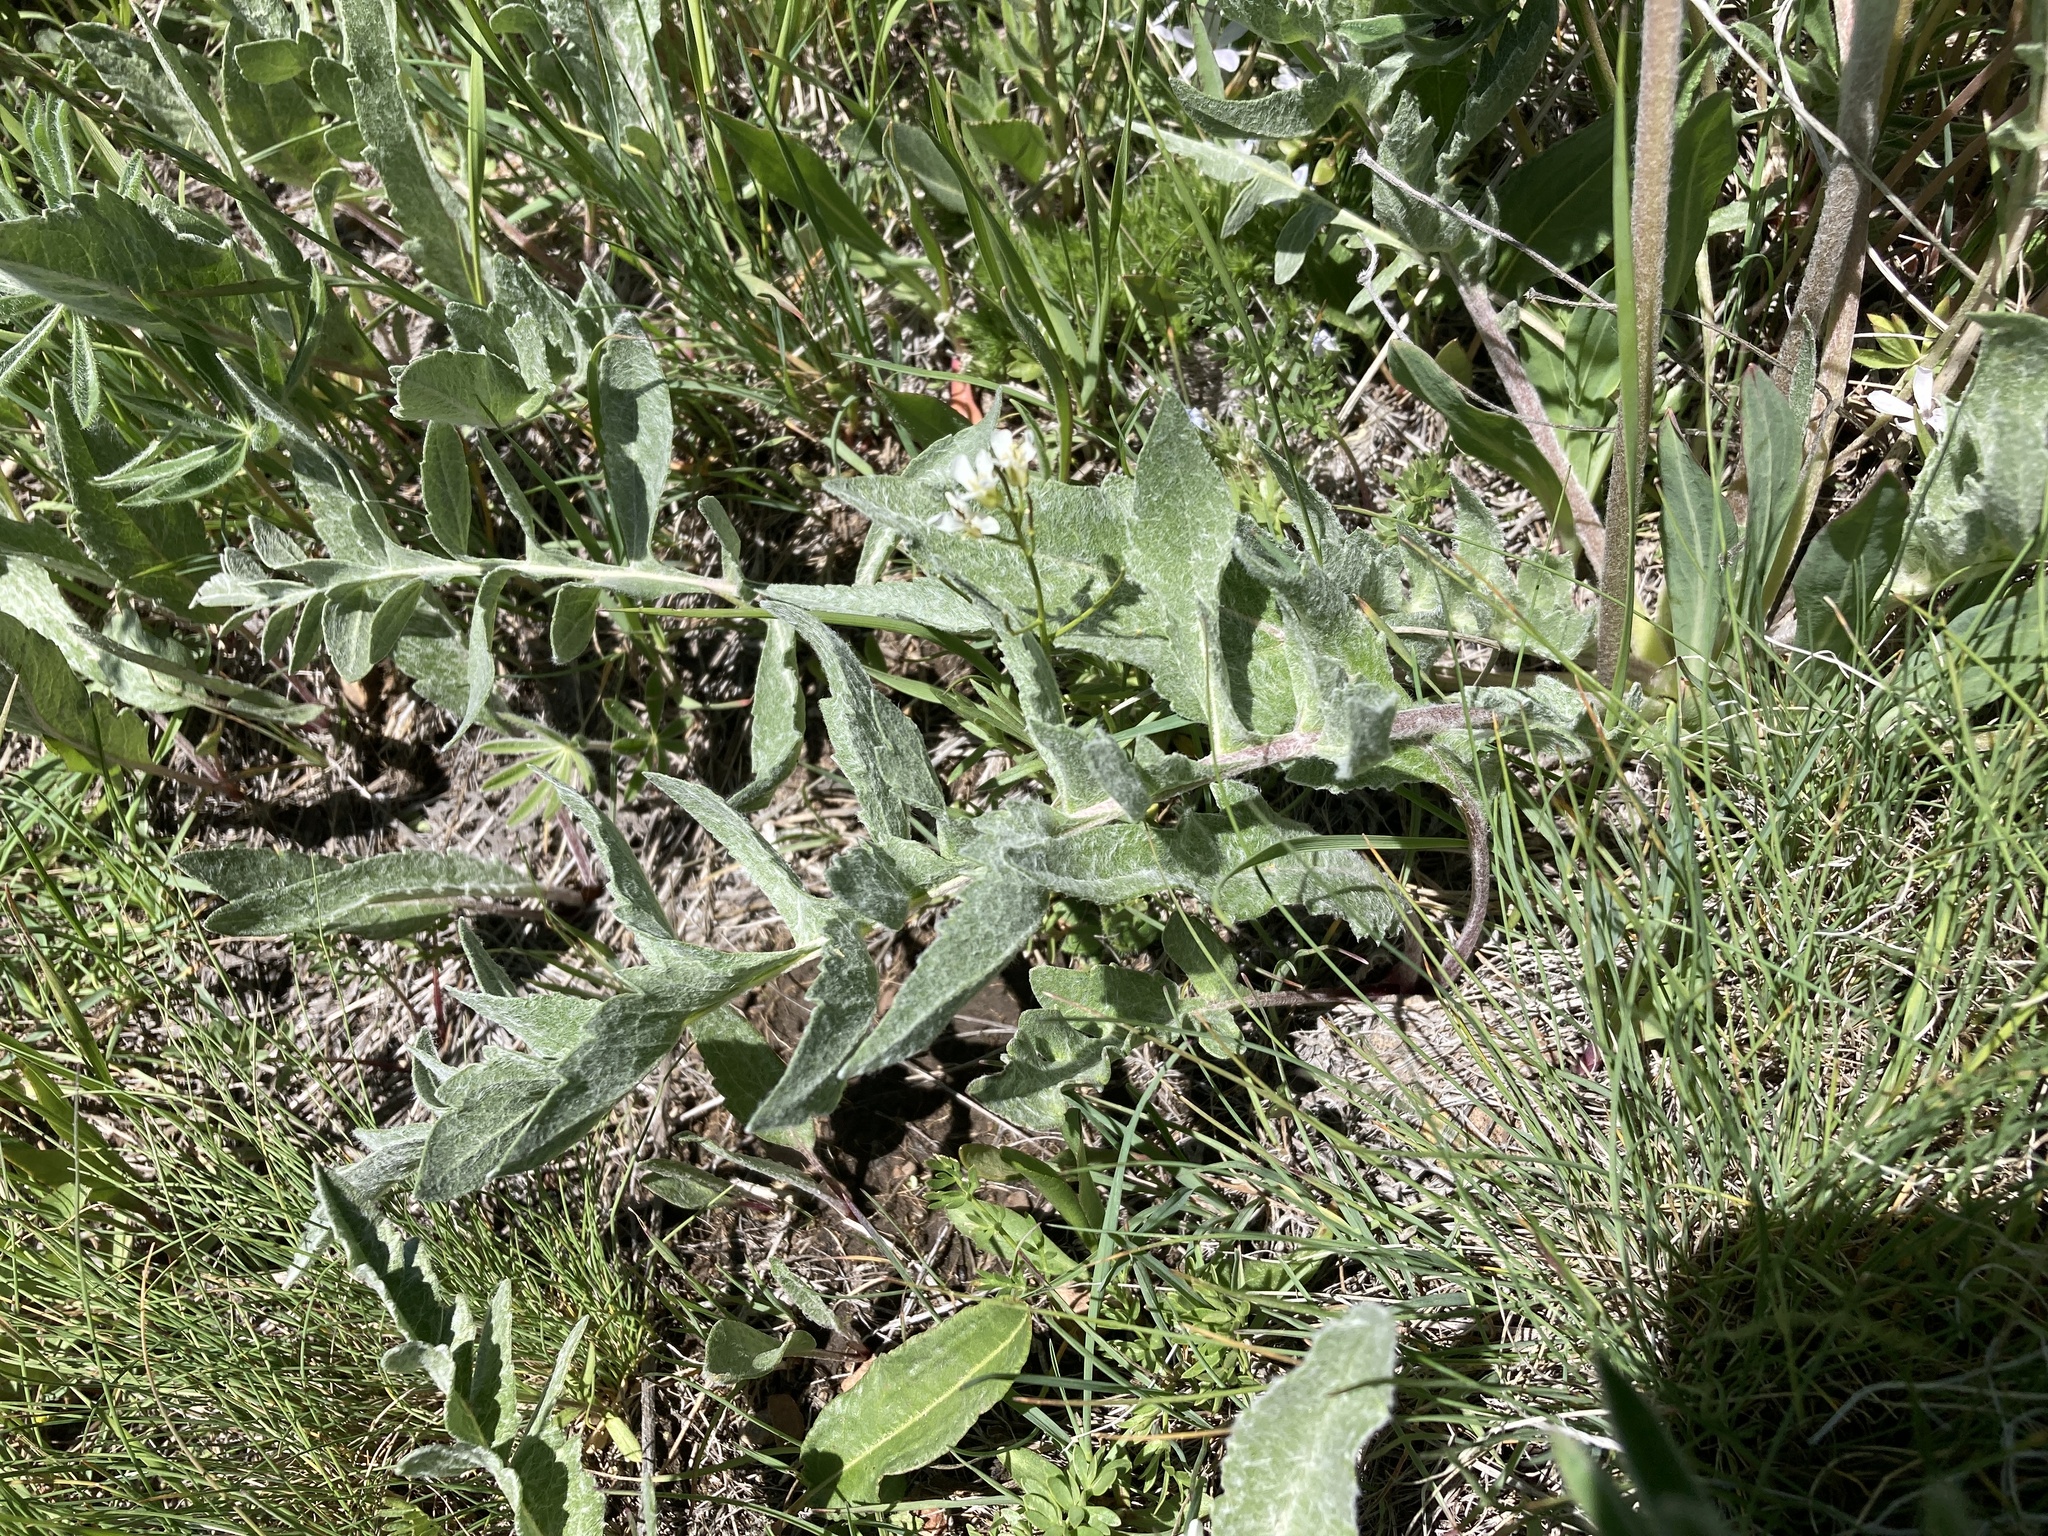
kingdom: Plantae
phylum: Tracheophyta
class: Magnoliopsida
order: Asterales
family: Asteraceae
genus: Balsamorhiza
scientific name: Balsamorhiza incana
